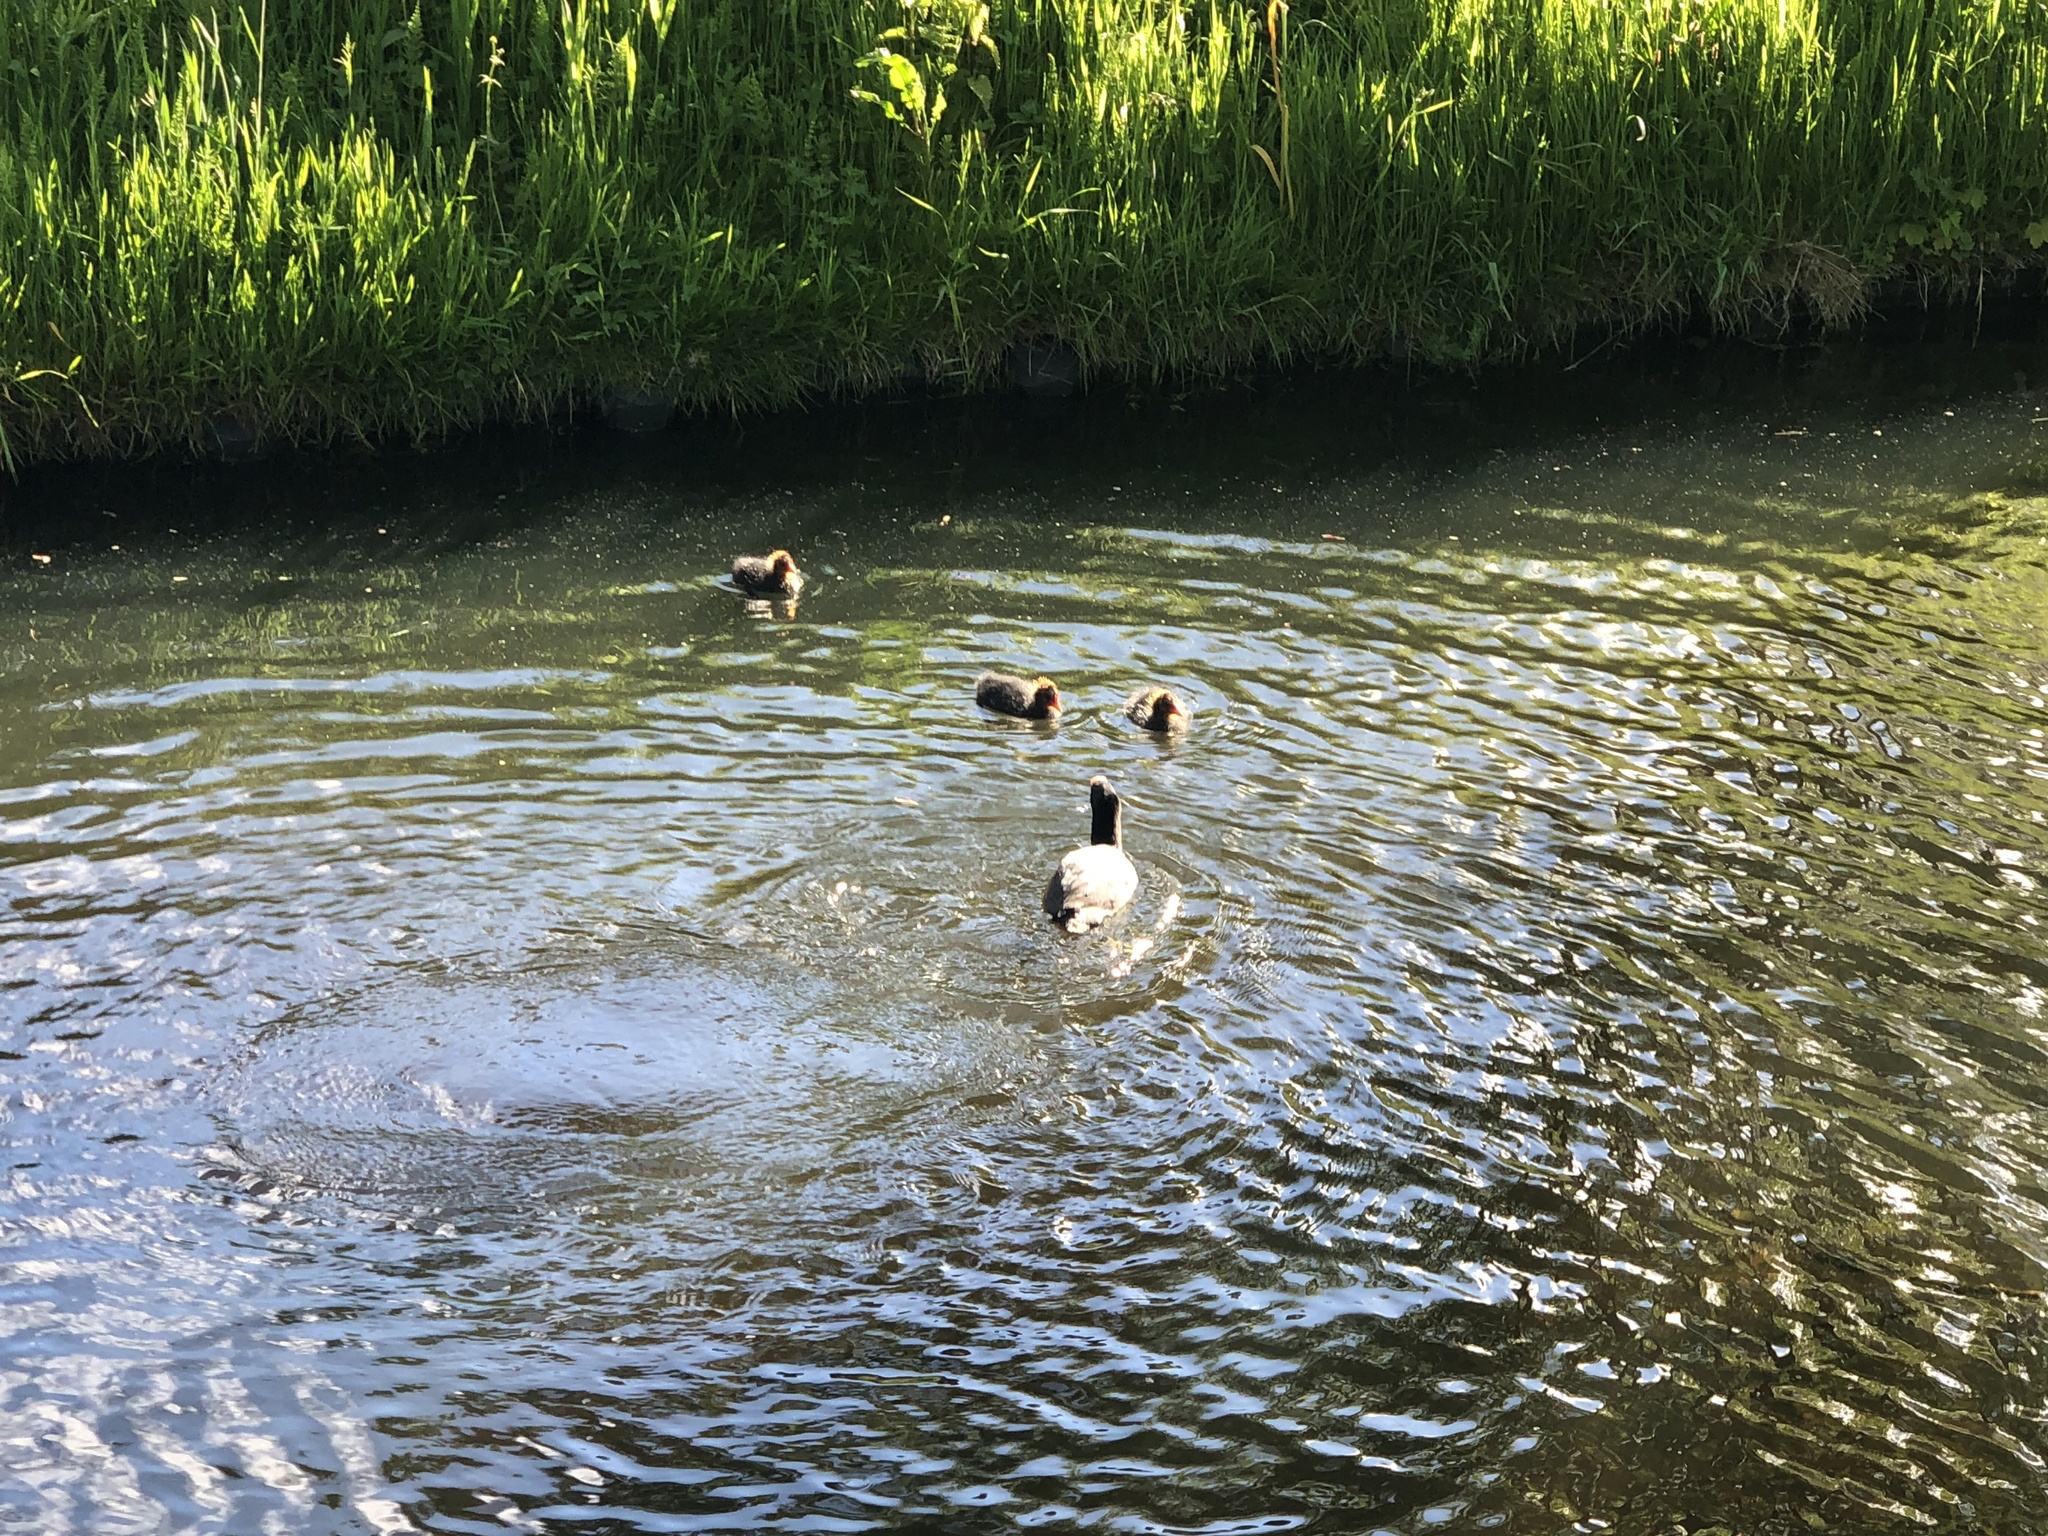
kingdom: Animalia
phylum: Chordata
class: Aves
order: Gruiformes
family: Rallidae
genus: Fulica
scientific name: Fulica atra
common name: Eurasian coot
